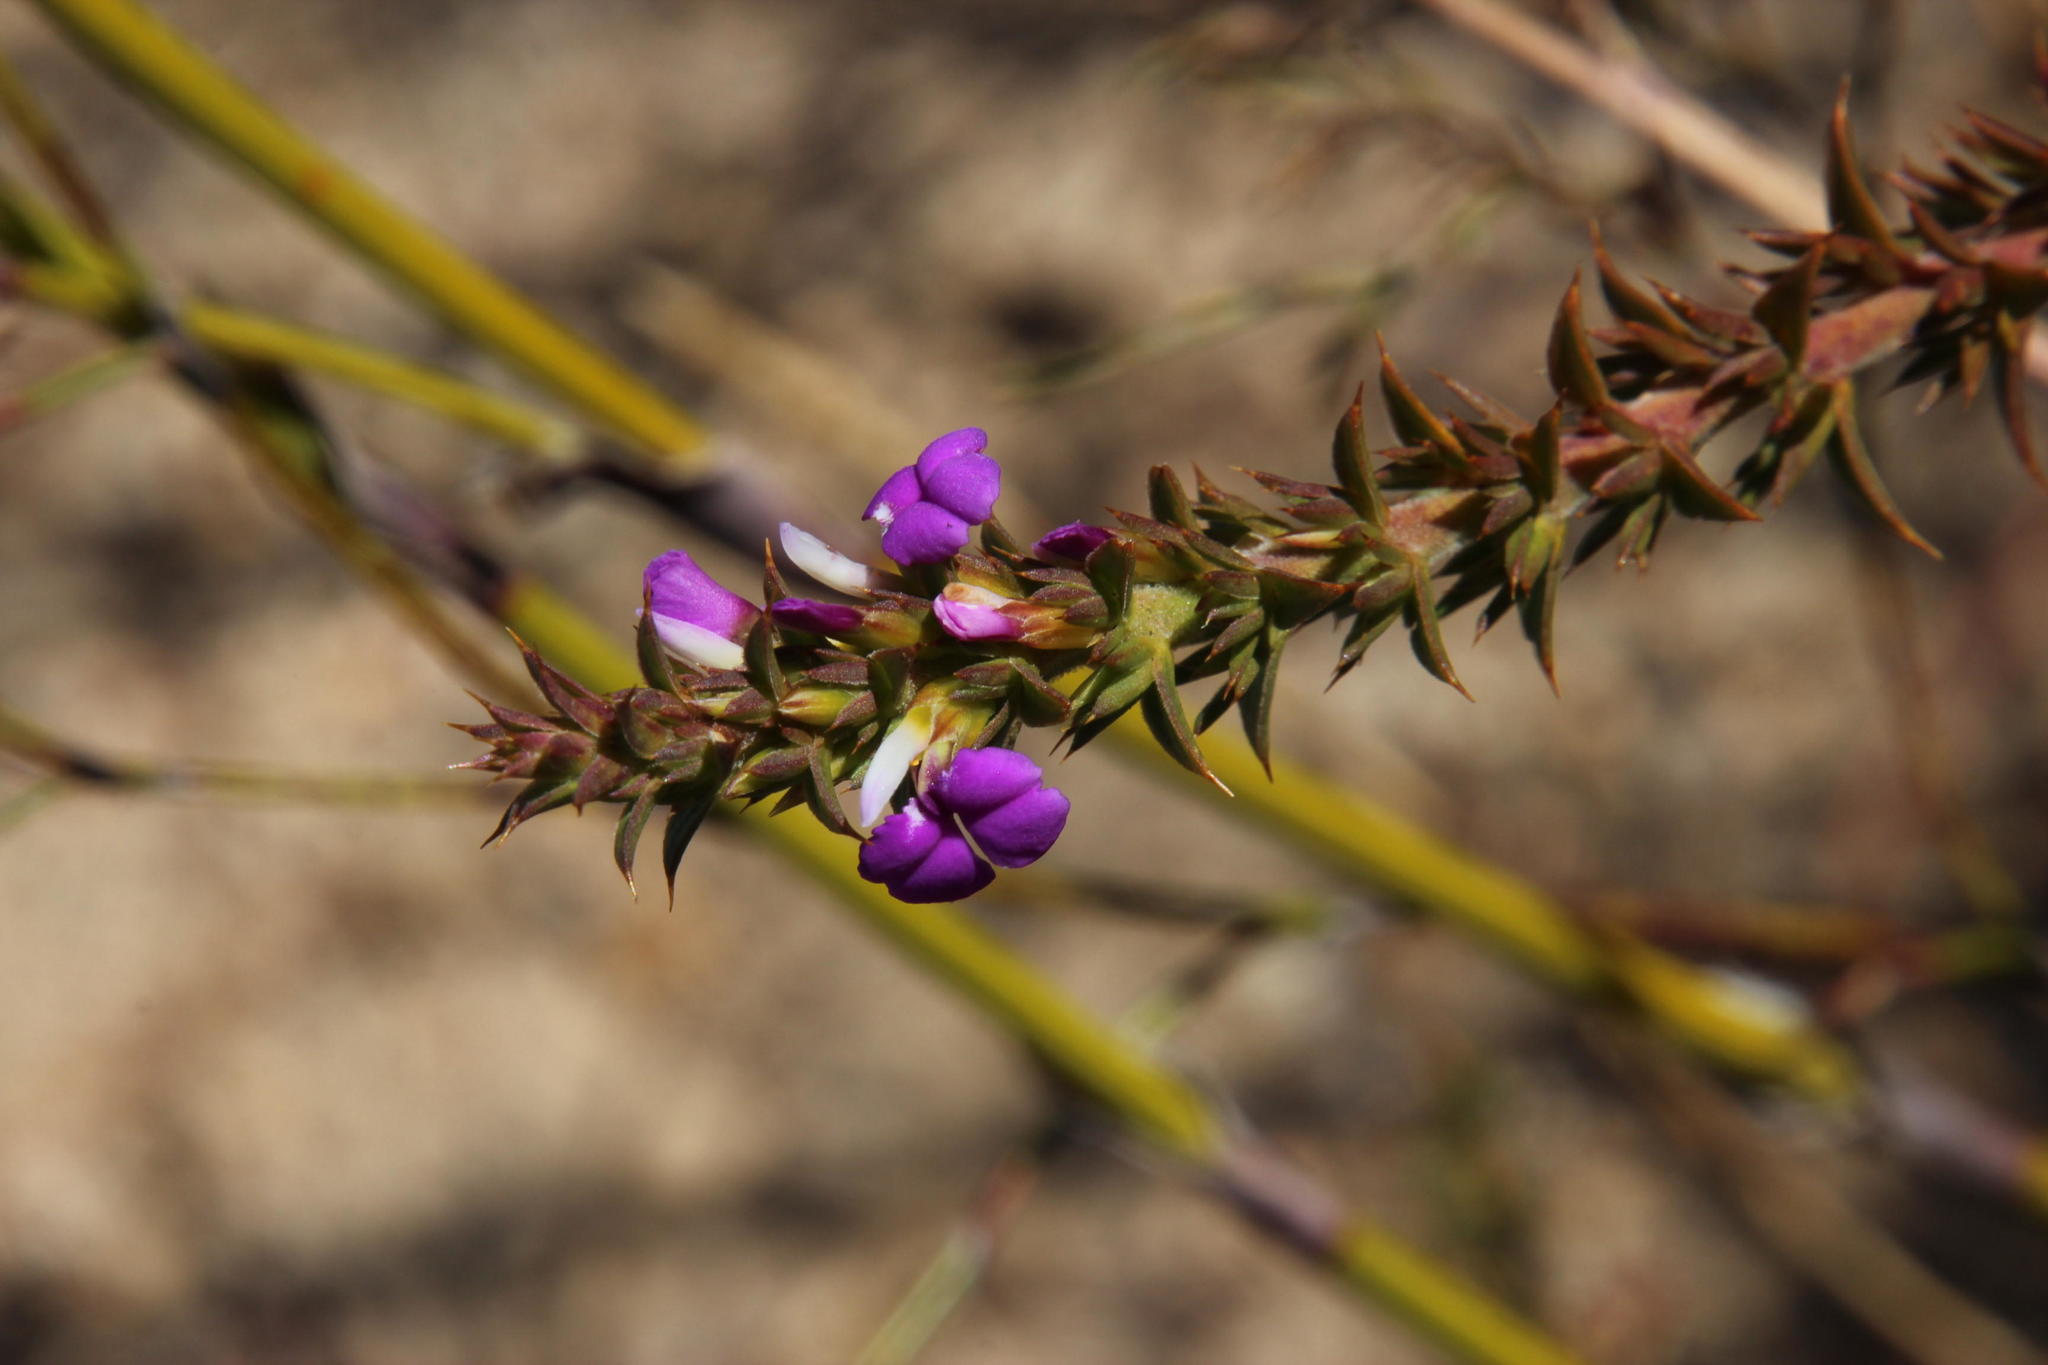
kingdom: Plantae
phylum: Tracheophyta
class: Magnoliopsida
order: Fabales
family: Polygalaceae
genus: Muraltia
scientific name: Muraltia heisteria
